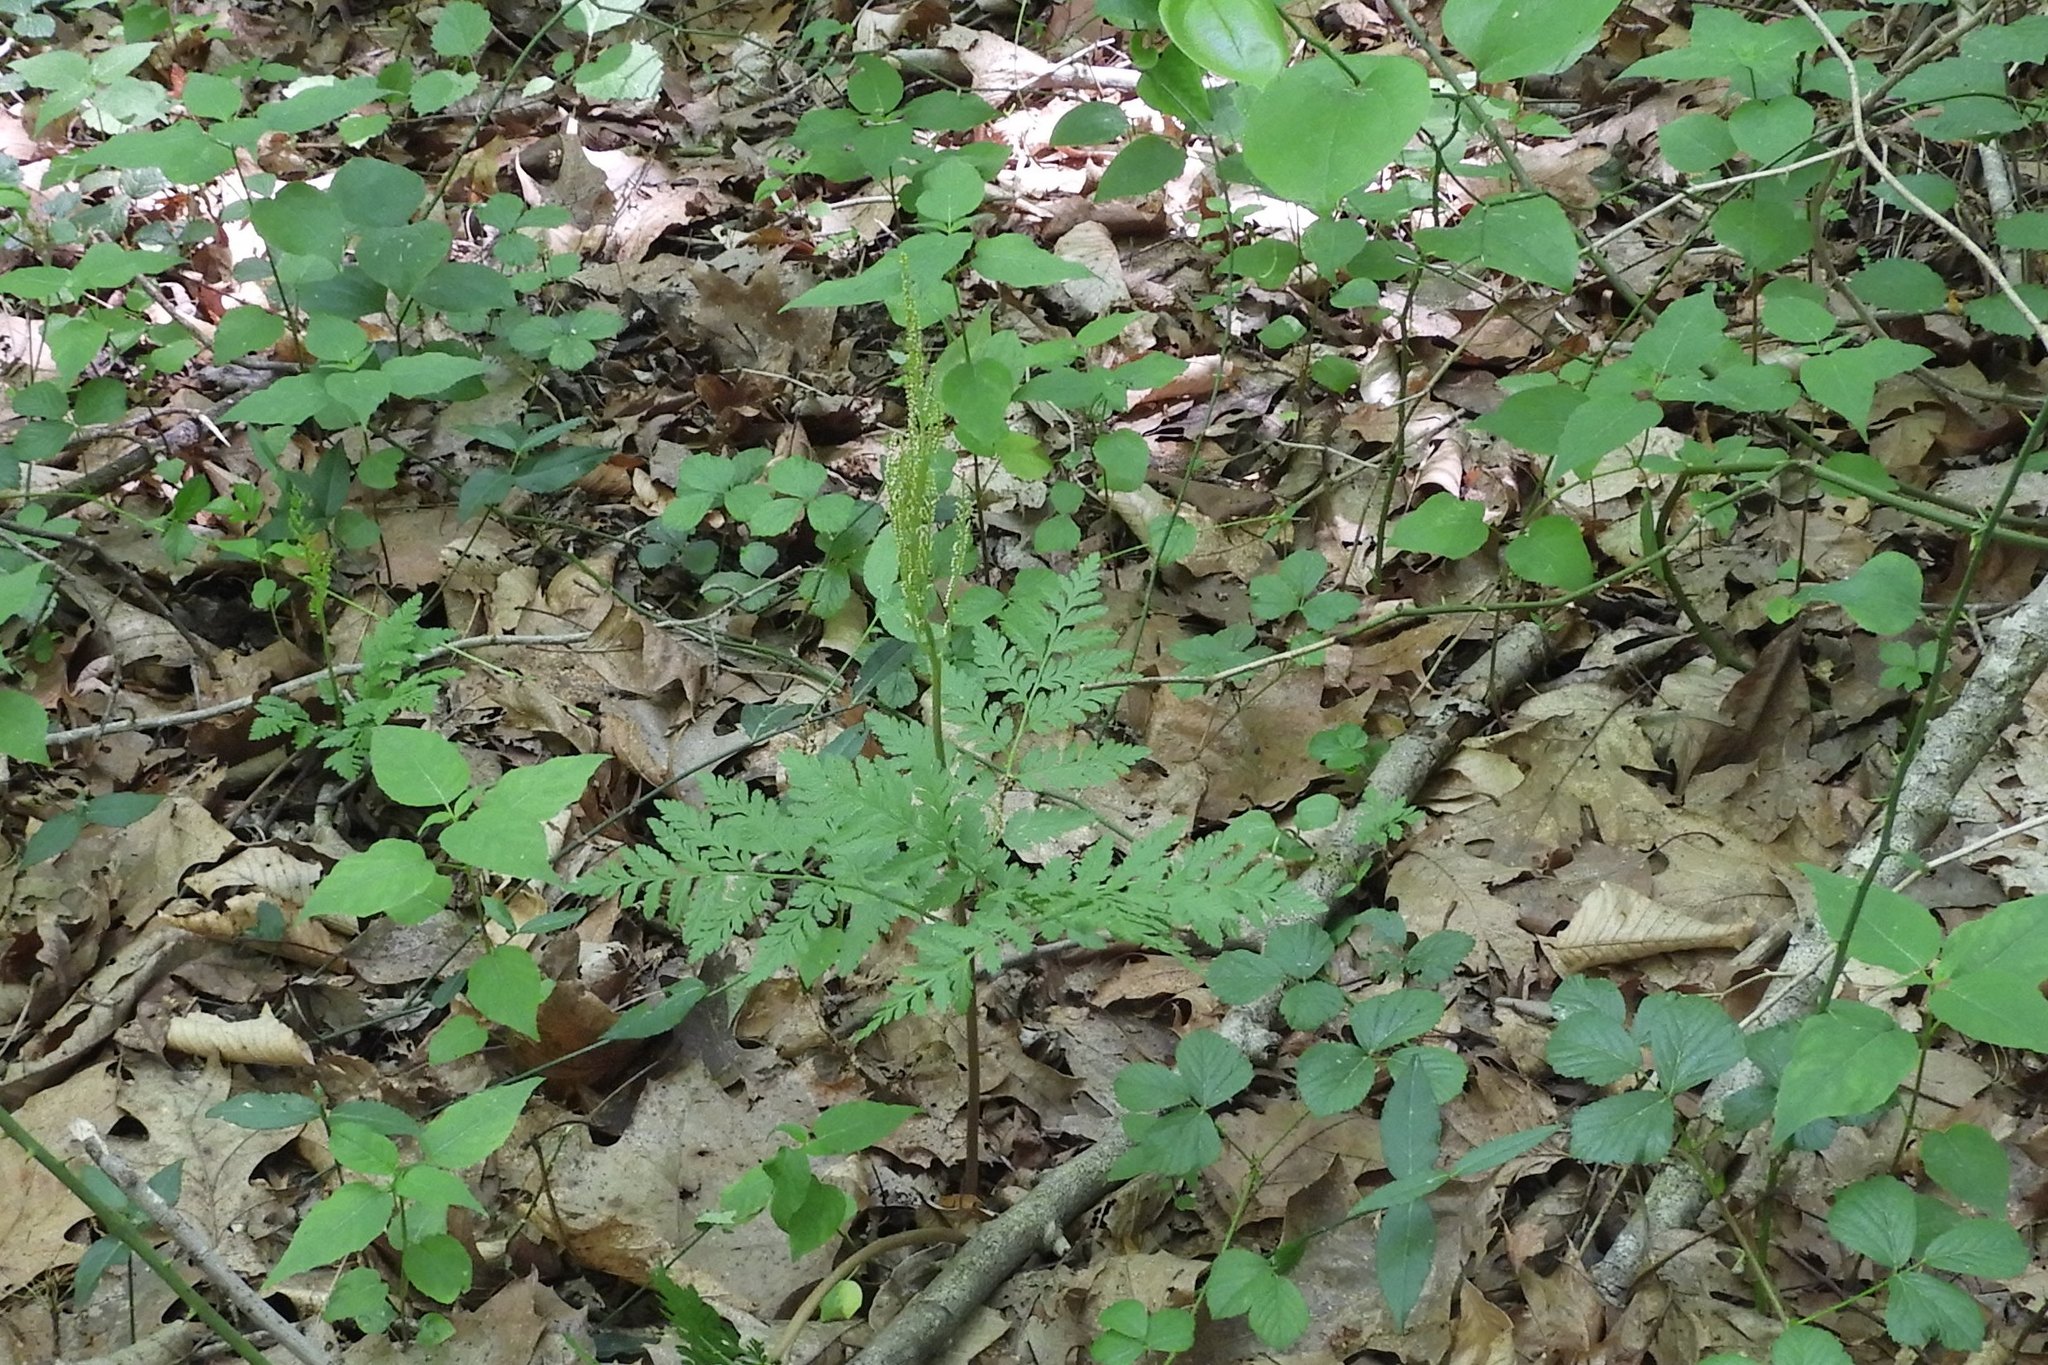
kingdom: Plantae
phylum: Tracheophyta
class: Polypodiopsida
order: Ophioglossales
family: Ophioglossaceae
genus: Botrypus
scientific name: Botrypus virginianus
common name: Common grapefern
